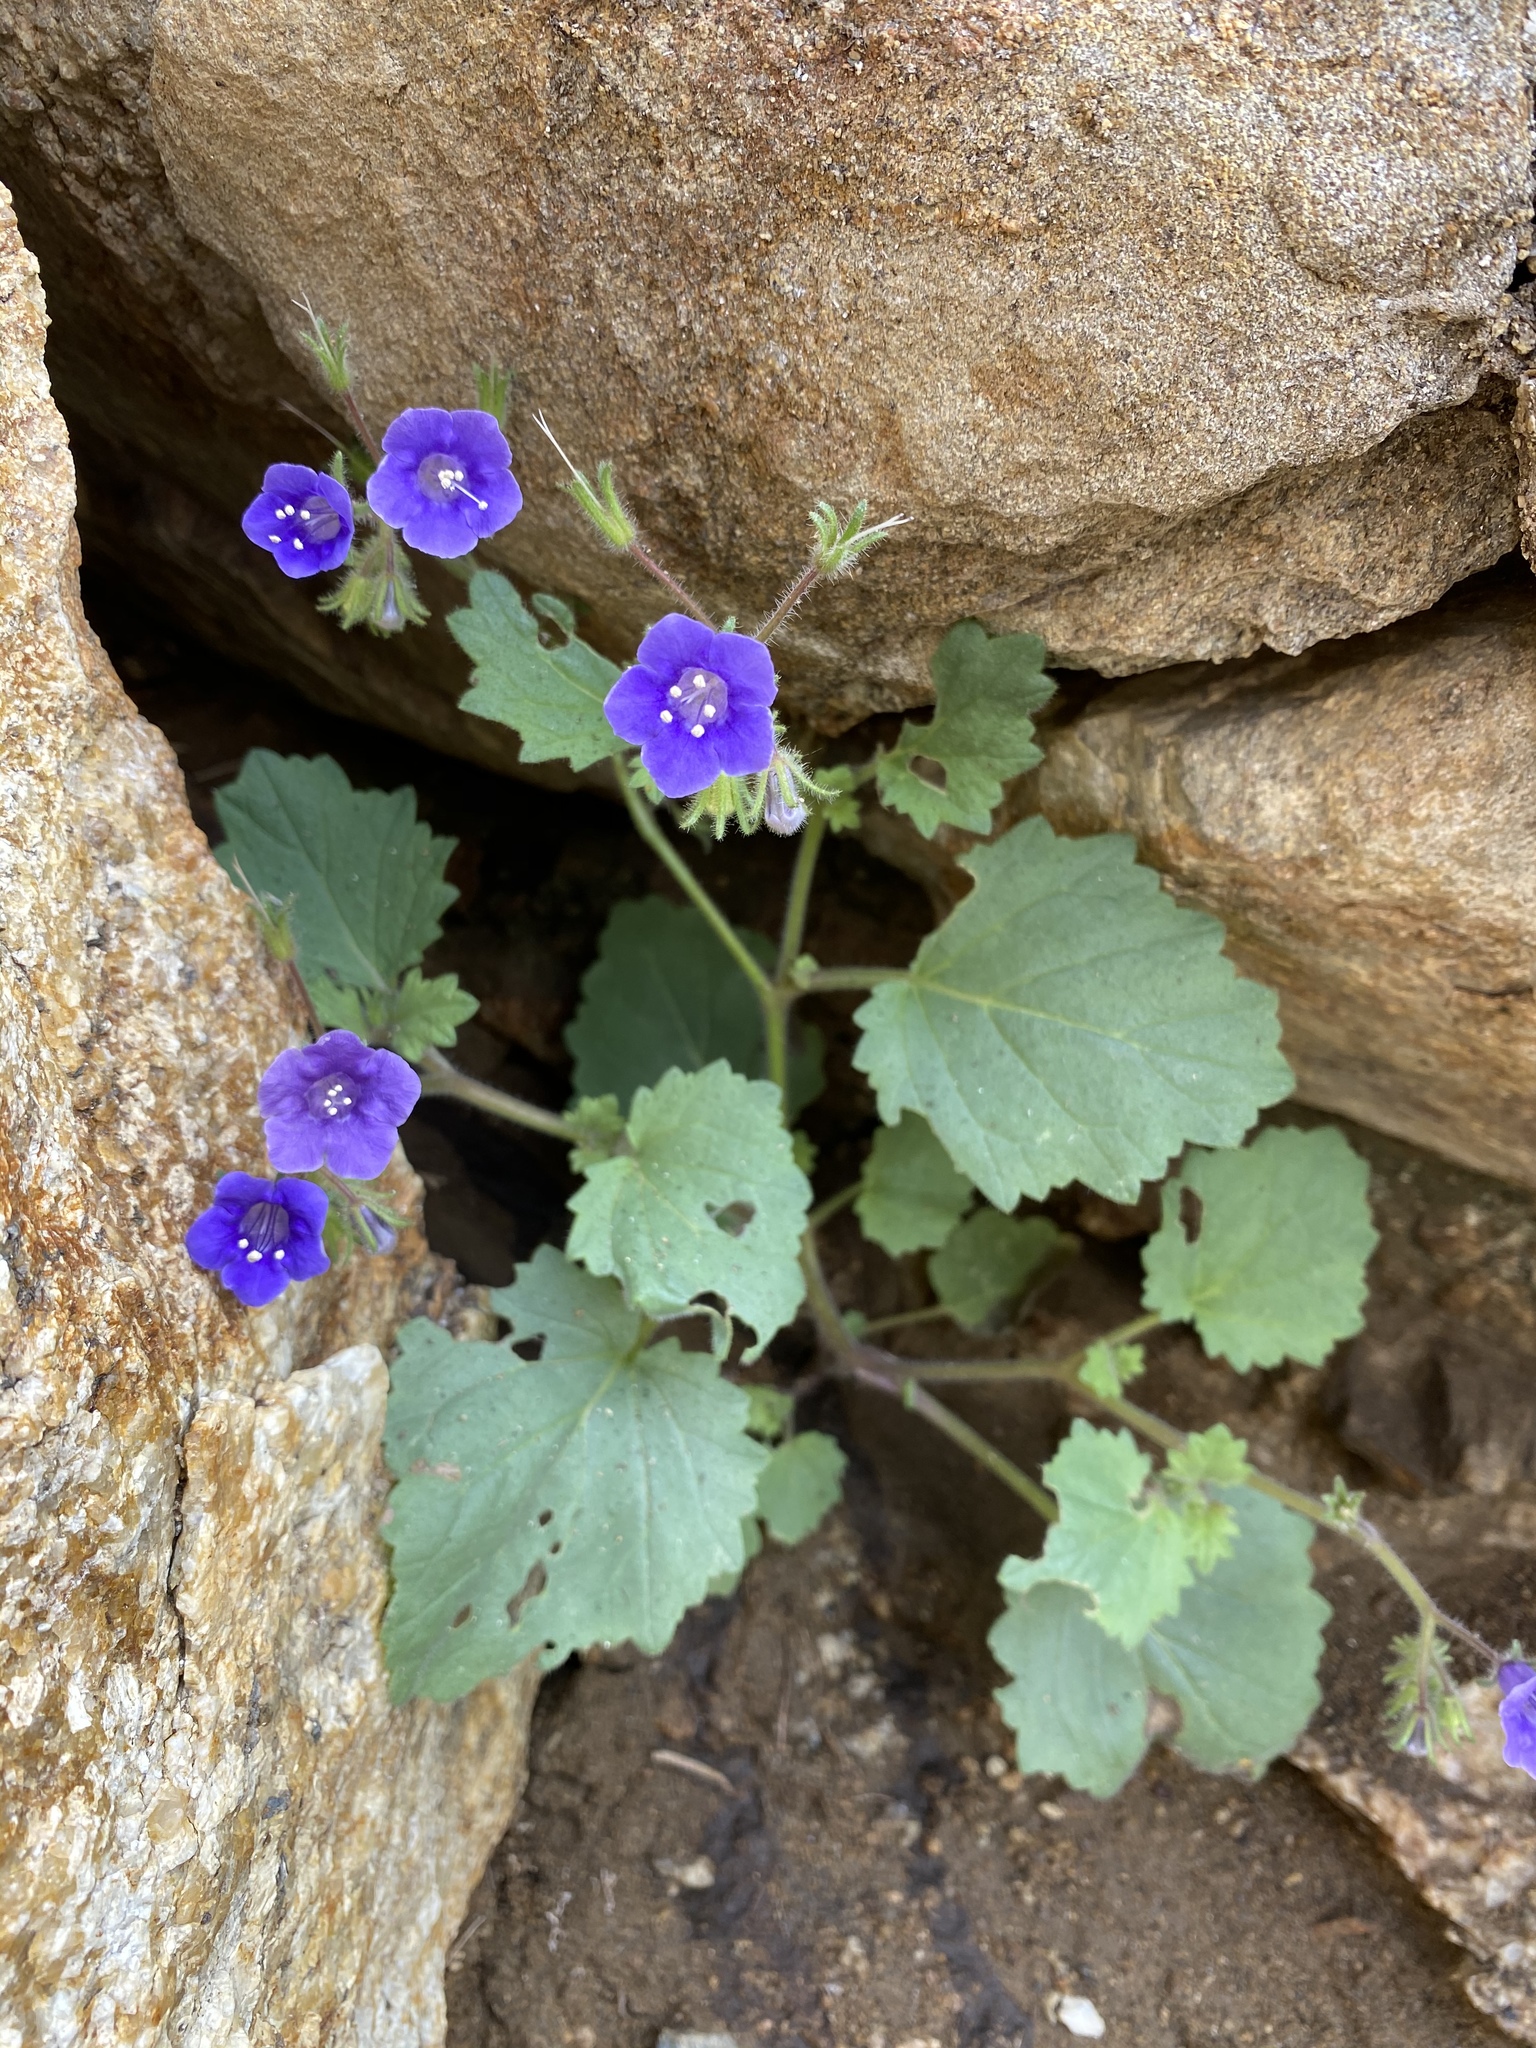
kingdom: Plantae
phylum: Tracheophyta
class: Magnoliopsida
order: Boraginales
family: Hydrophyllaceae
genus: Phacelia
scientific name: Phacelia minor
